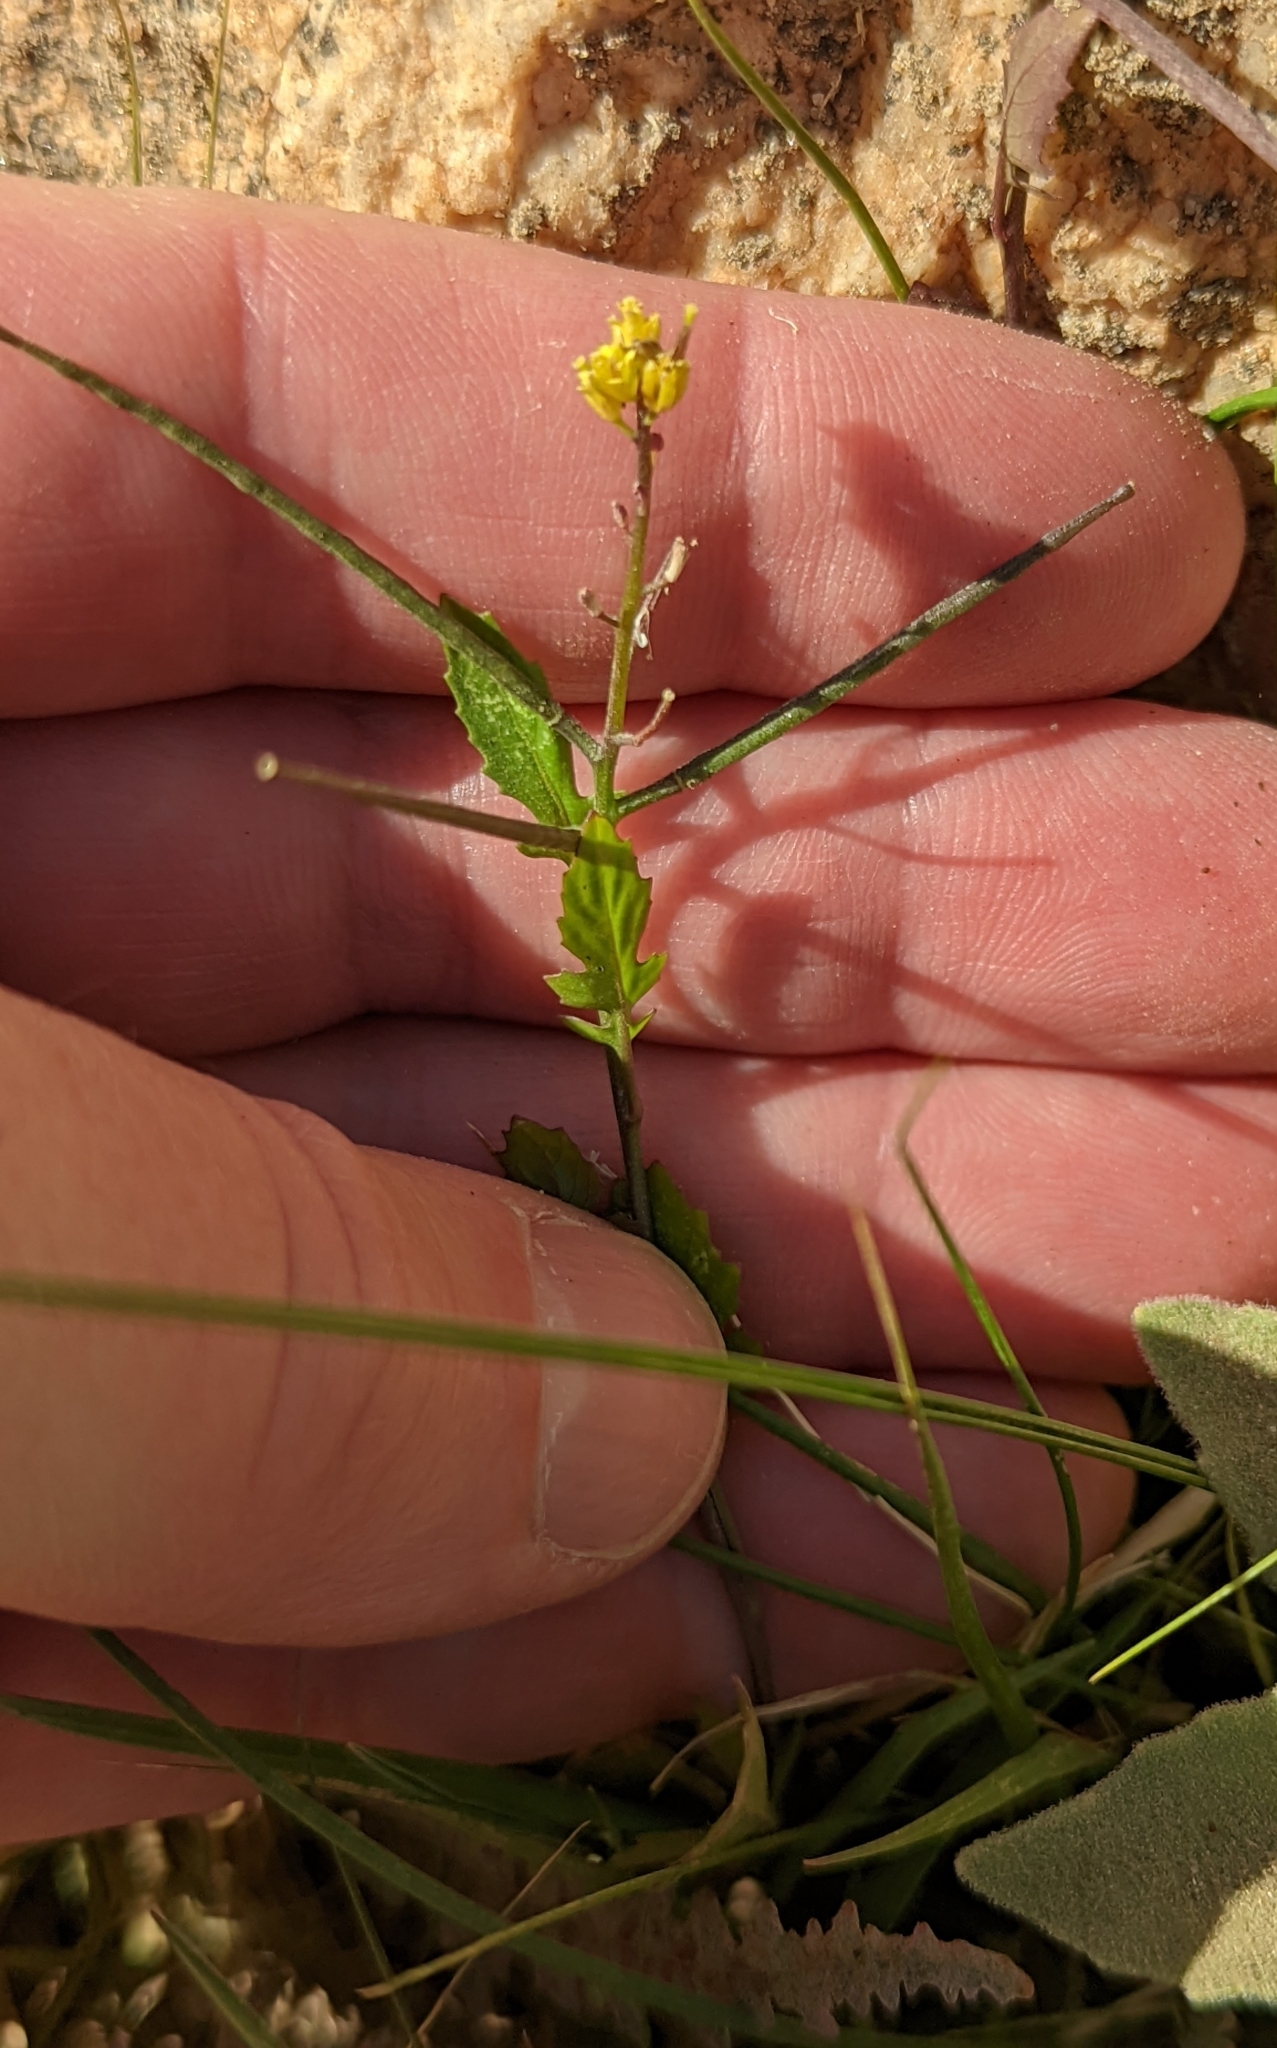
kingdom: Plantae
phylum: Tracheophyta
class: Magnoliopsida
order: Brassicales
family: Brassicaceae
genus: Sisymbrium
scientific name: Sisymbrium irio
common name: London rocket
